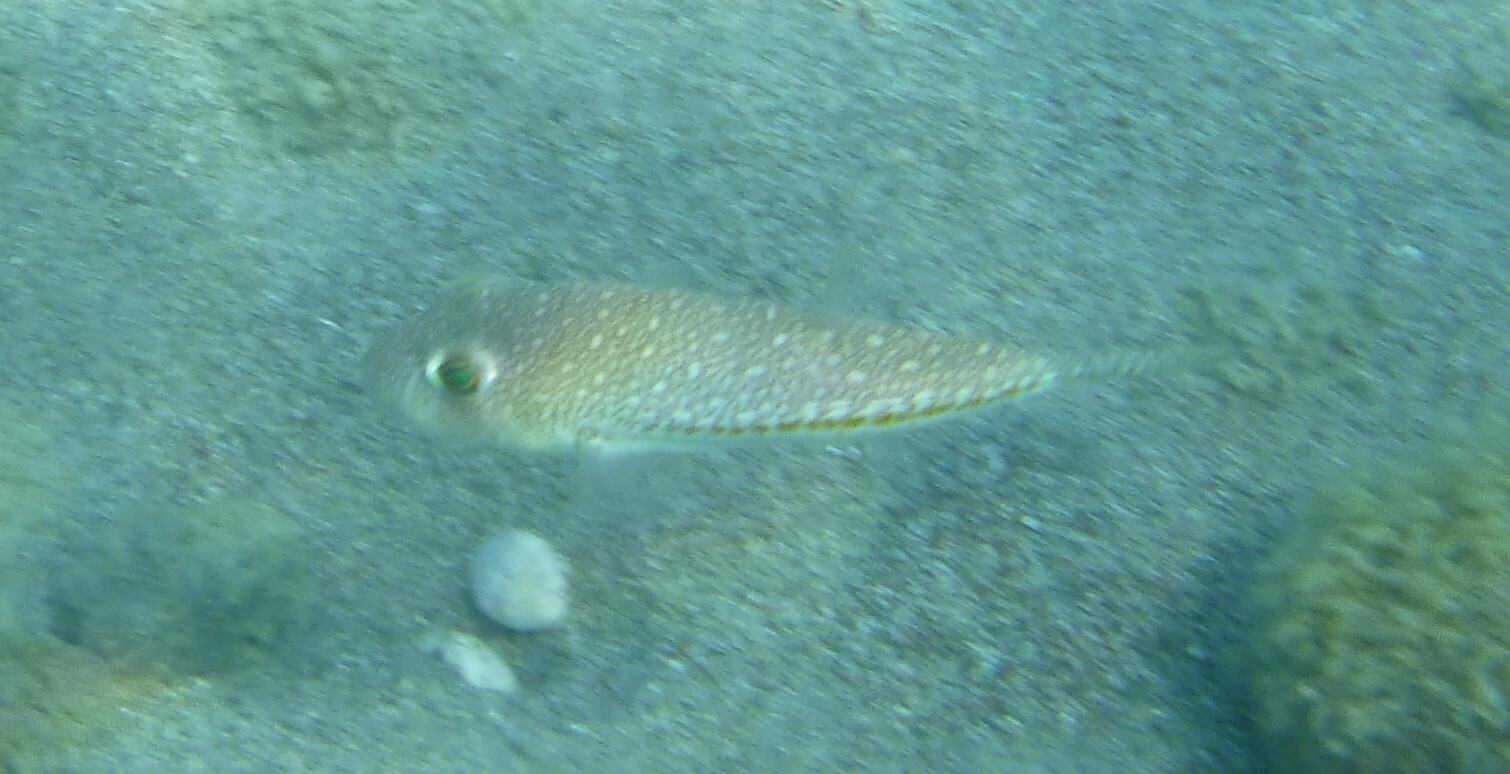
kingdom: Animalia
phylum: Chordata
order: Tetraodontiformes
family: Tetraodontidae
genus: Torquigener
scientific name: Torquigener flavimaculosus
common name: Studded pufferfish
